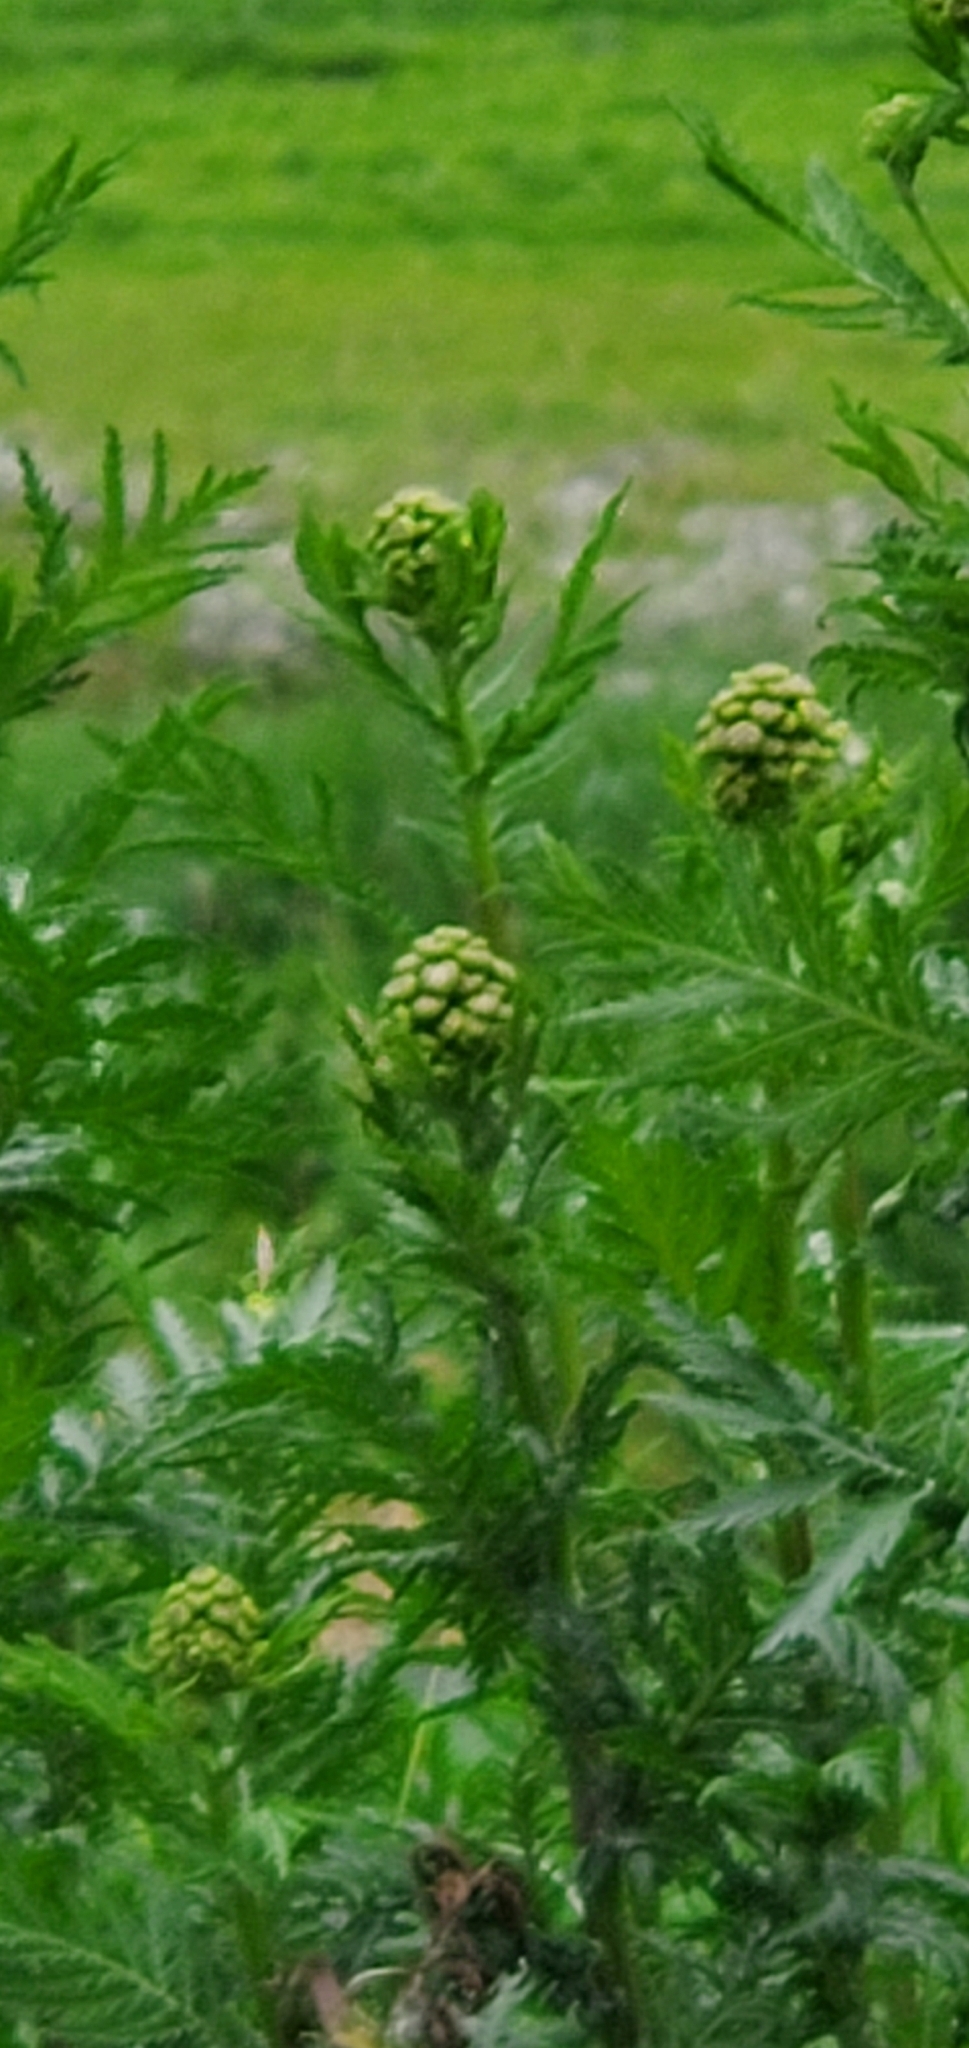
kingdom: Plantae
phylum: Tracheophyta
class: Magnoliopsida
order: Asterales
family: Asteraceae
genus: Tanacetum
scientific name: Tanacetum vulgare
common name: Common tansy
